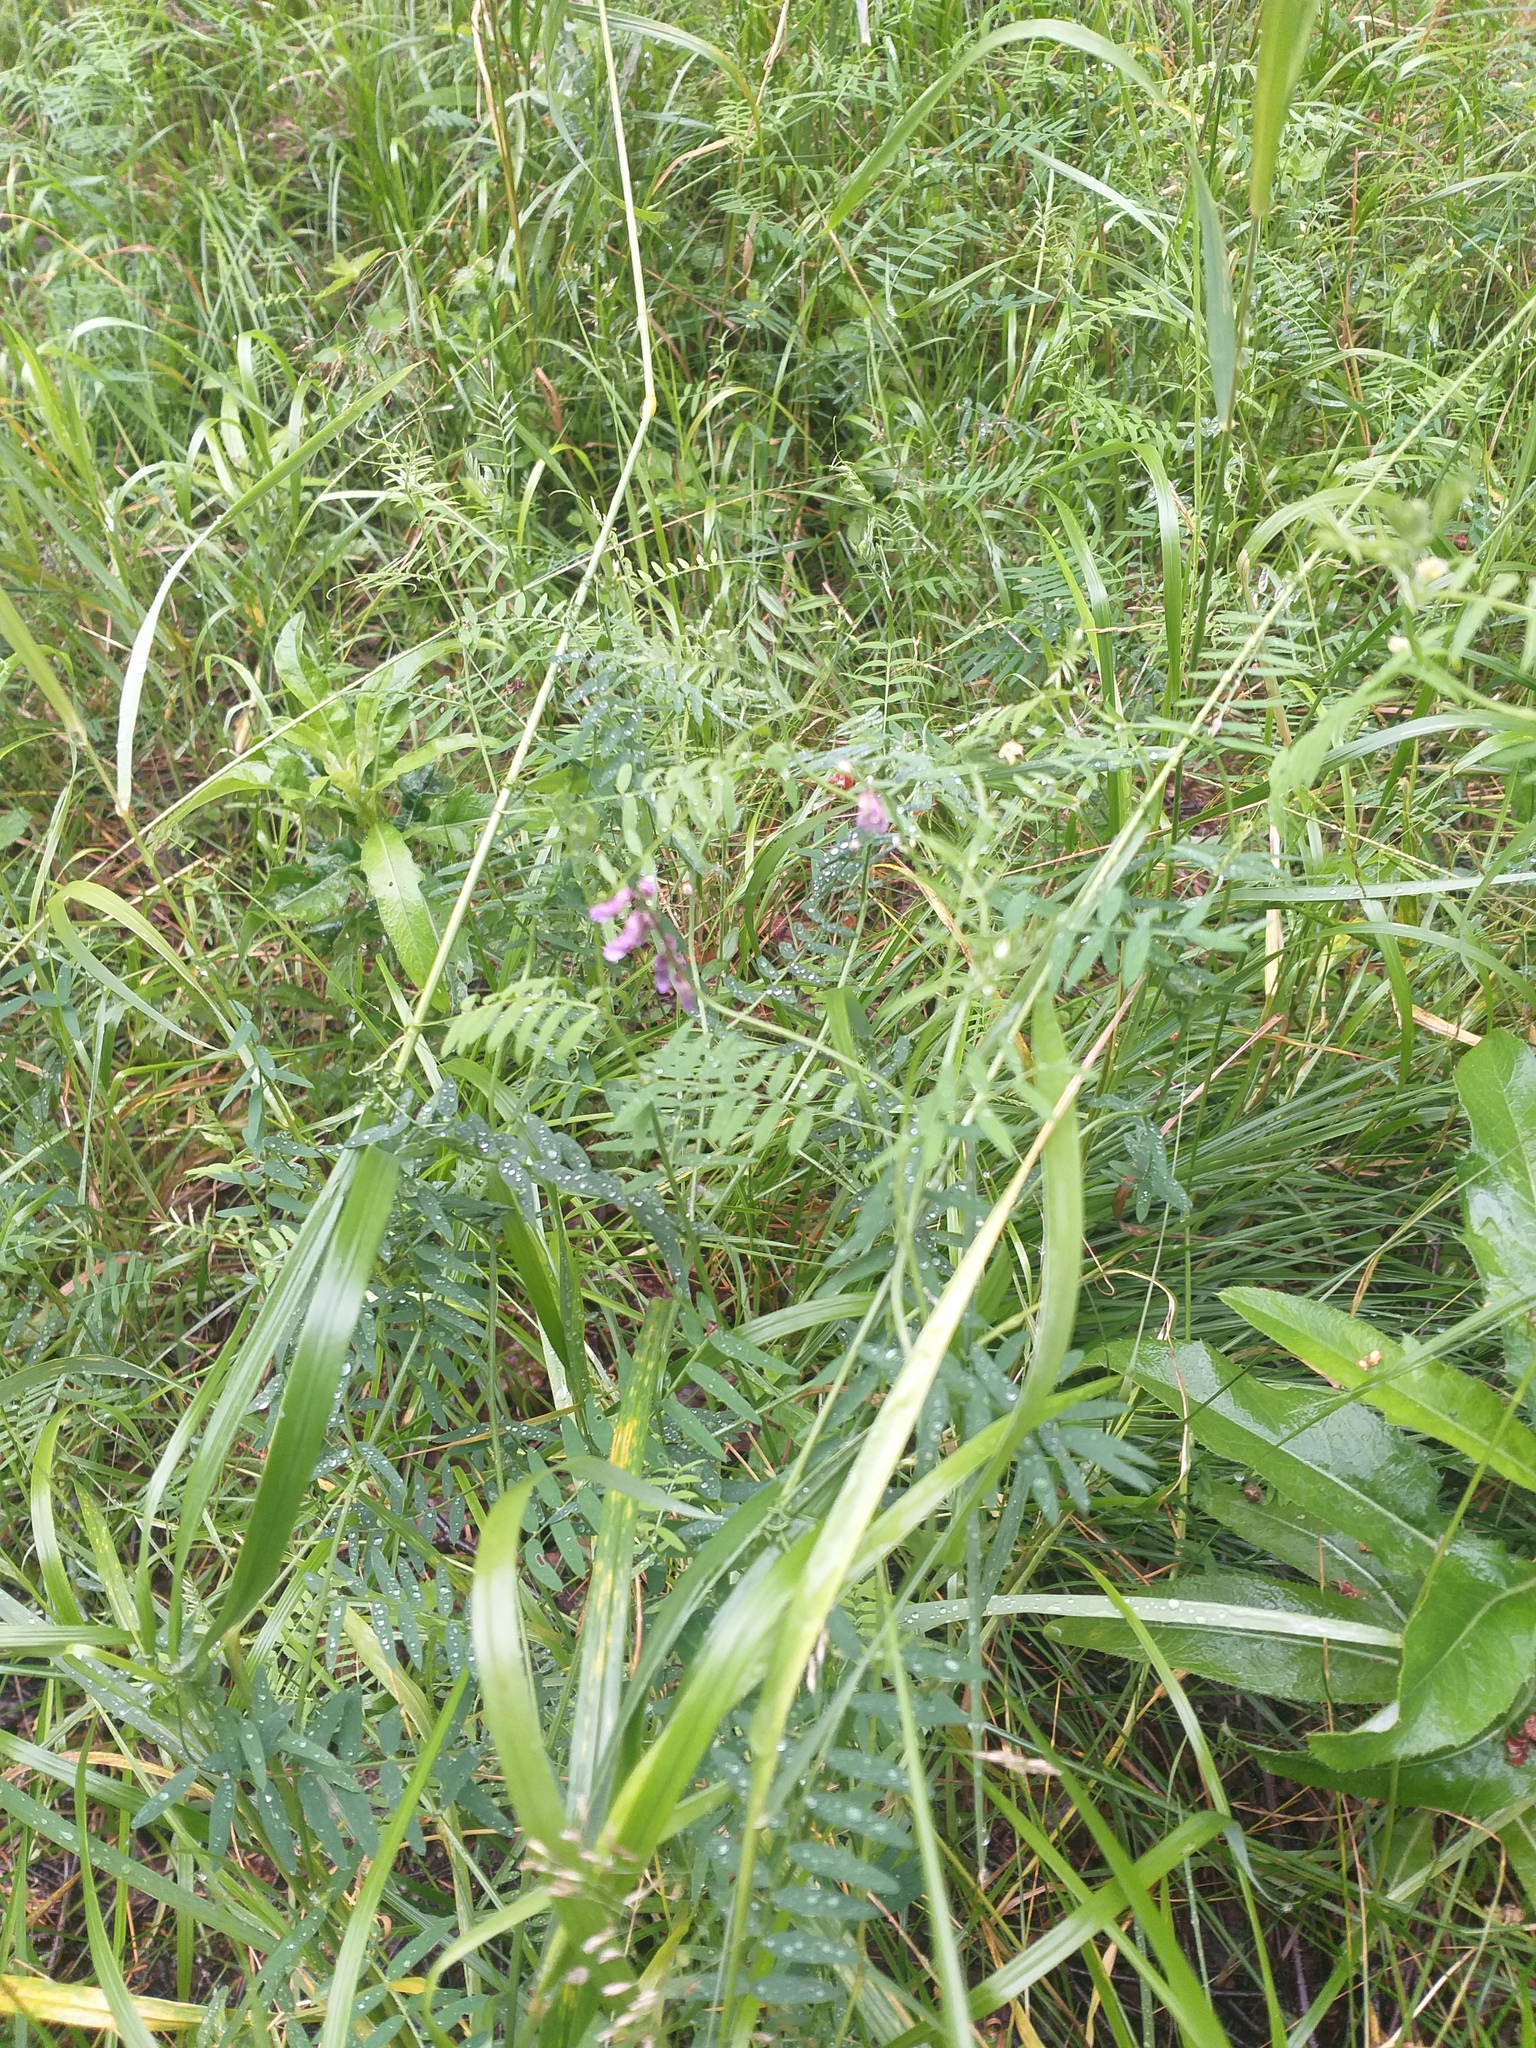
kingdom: Plantae
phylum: Tracheophyta
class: Magnoliopsida
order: Fabales
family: Fabaceae
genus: Vicia
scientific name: Vicia cracca
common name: Bird vetch
